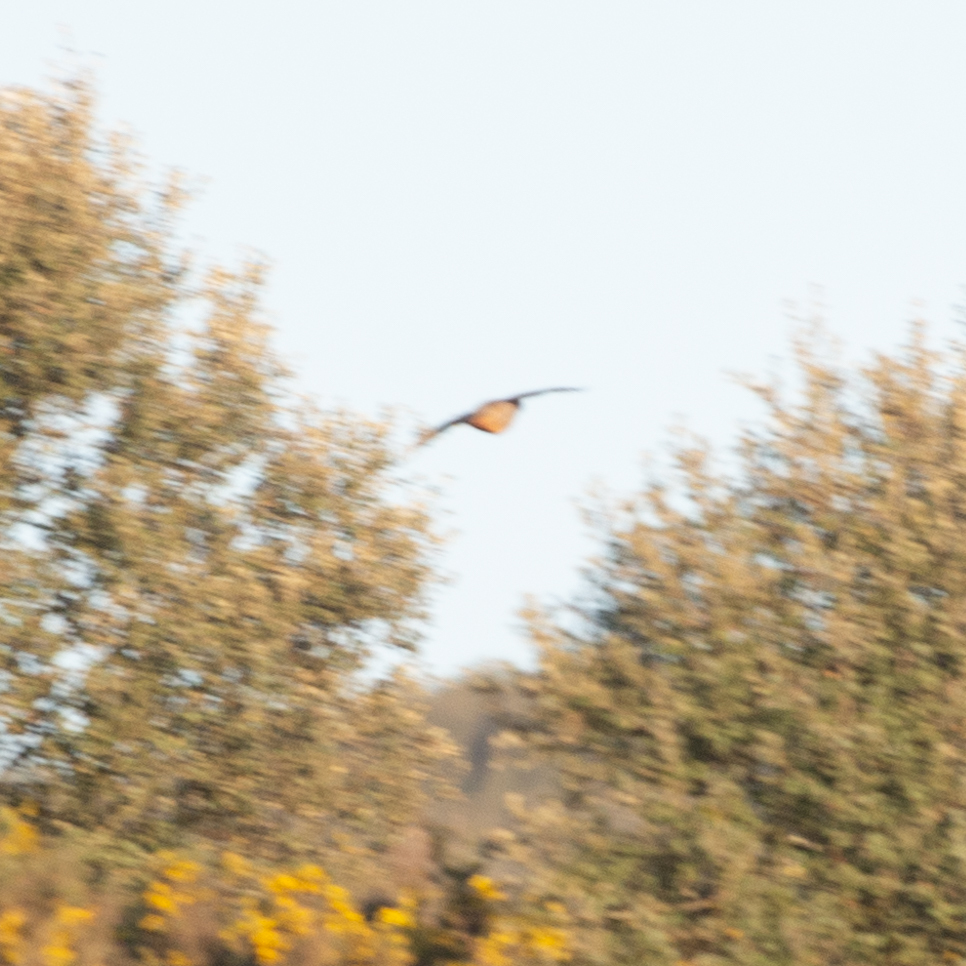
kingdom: Animalia
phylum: Chordata
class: Aves
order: Galliformes
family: Phasianidae
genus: Alectoris
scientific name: Alectoris rufa
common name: Red-legged partridge
